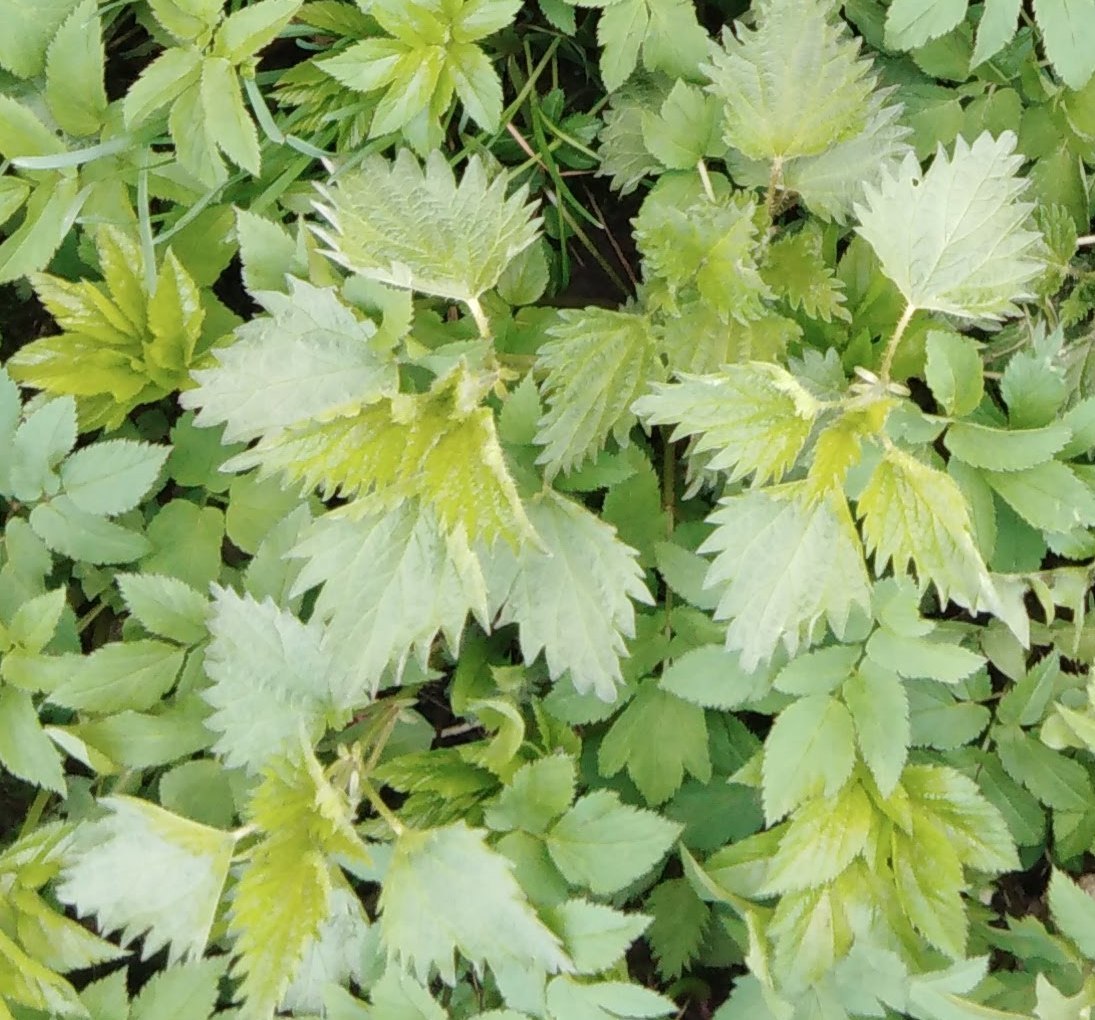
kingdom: Plantae
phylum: Tracheophyta
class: Magnoliopsida
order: Rosales
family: Urticaceae
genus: Urtica
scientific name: Urtica dioica
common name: Common nettle
